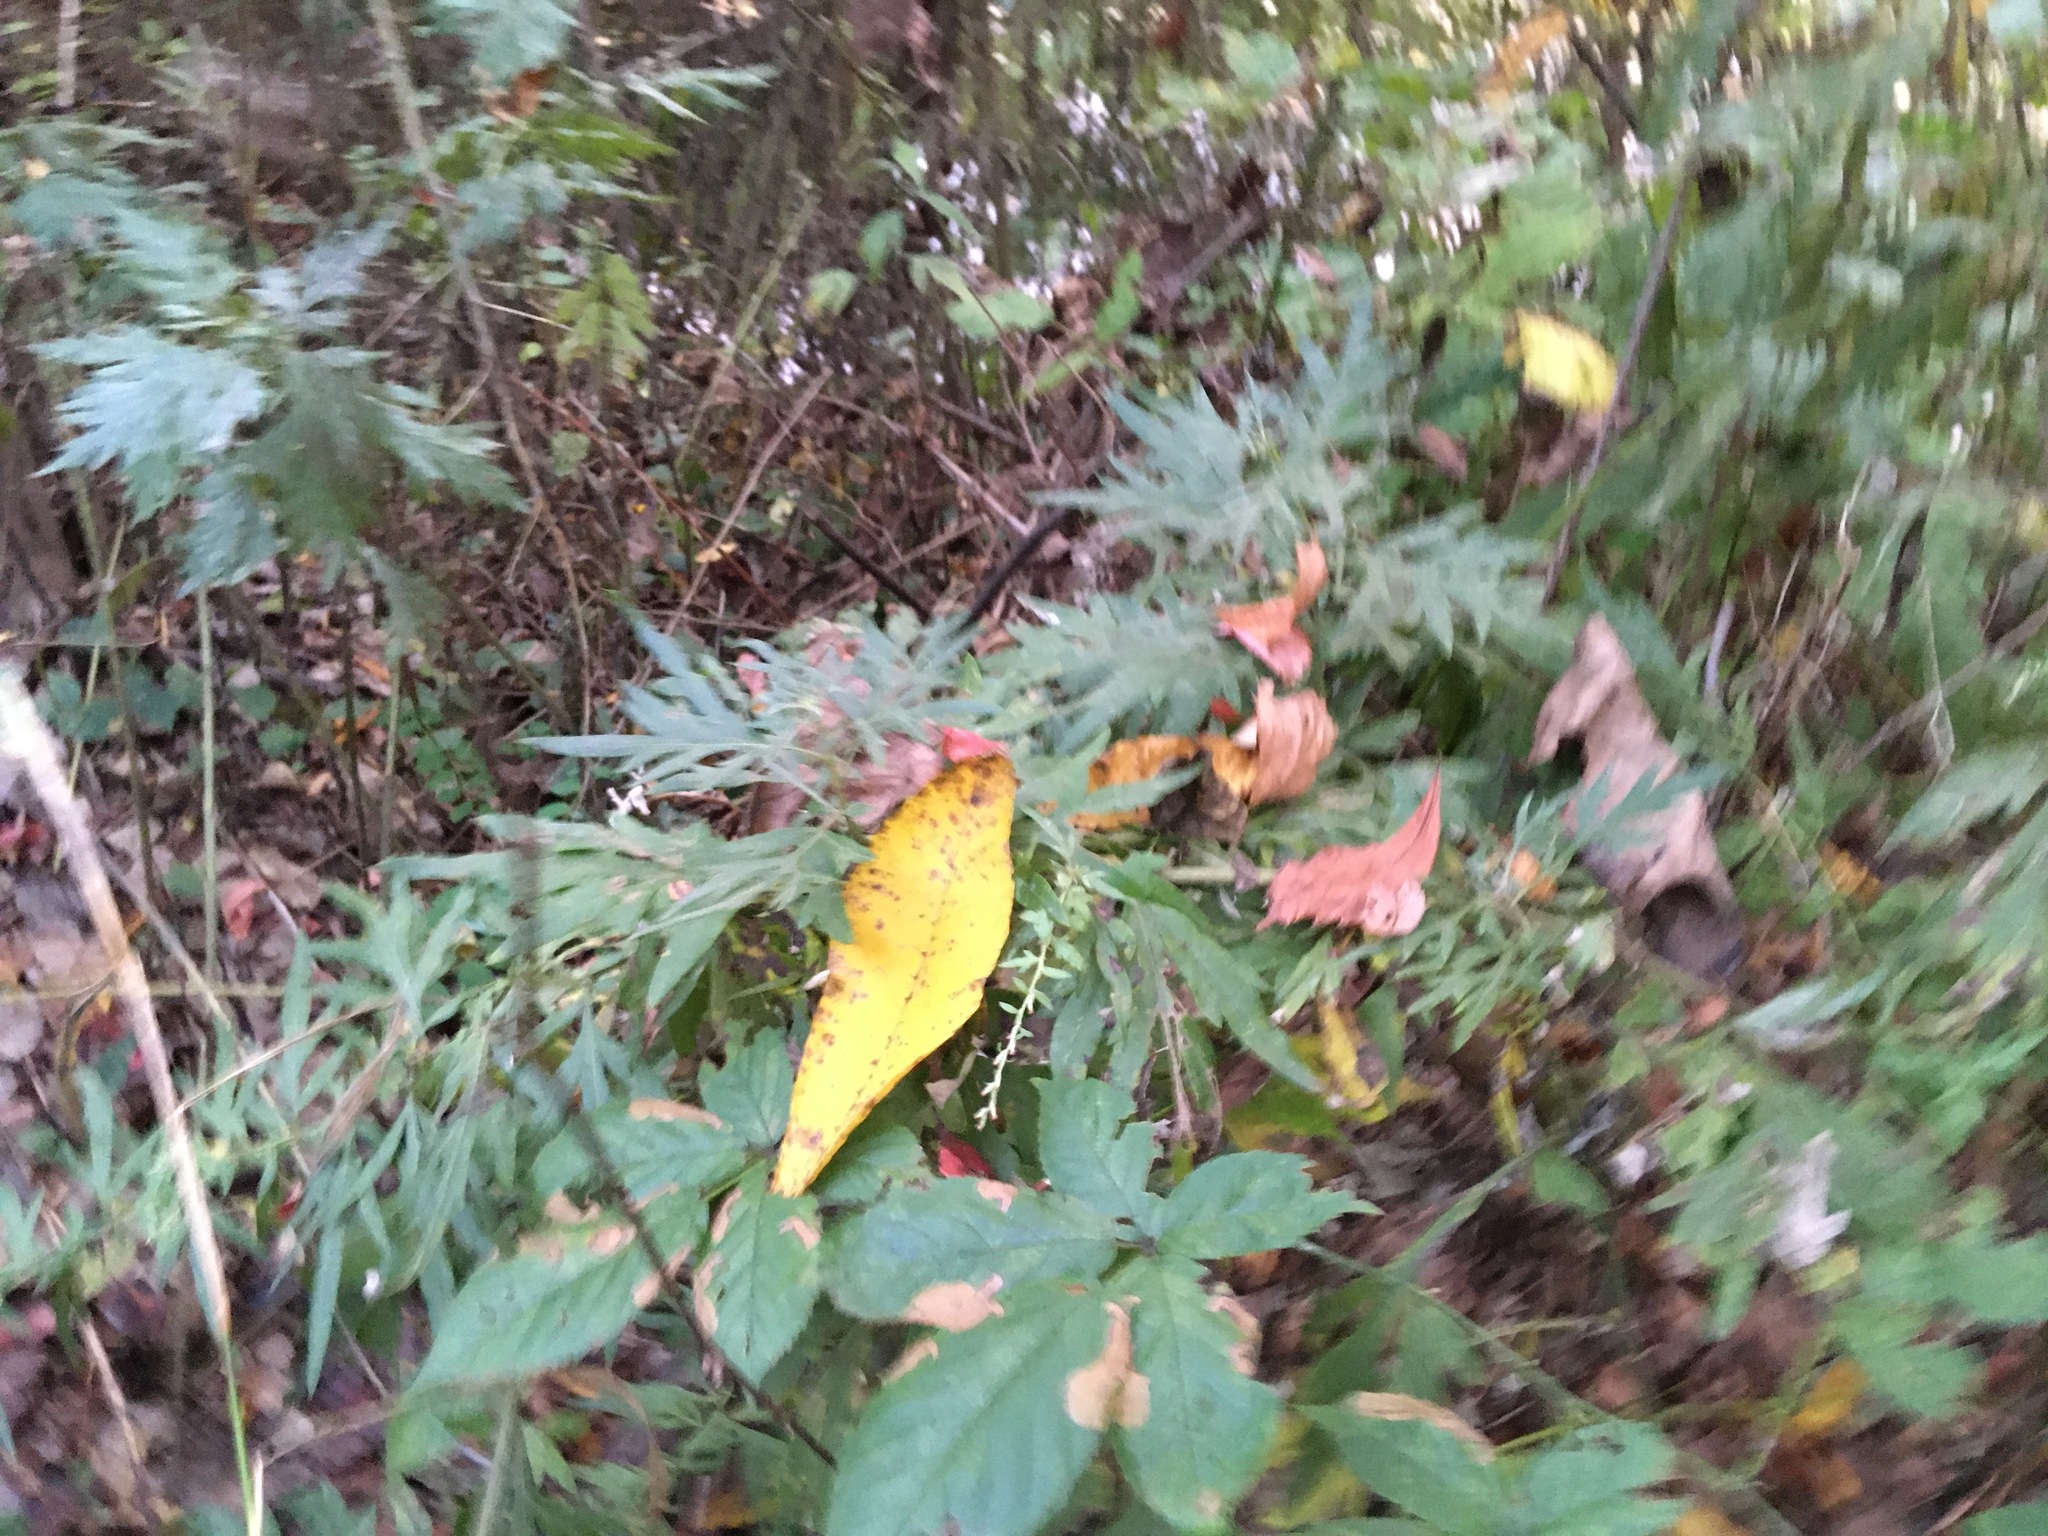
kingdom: Plantae
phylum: Tracheophyta
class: Magnoliopsida
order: Asterales
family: Asteraceae
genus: Artemisia
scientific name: Artemisia vulgaris
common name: Mugwort
